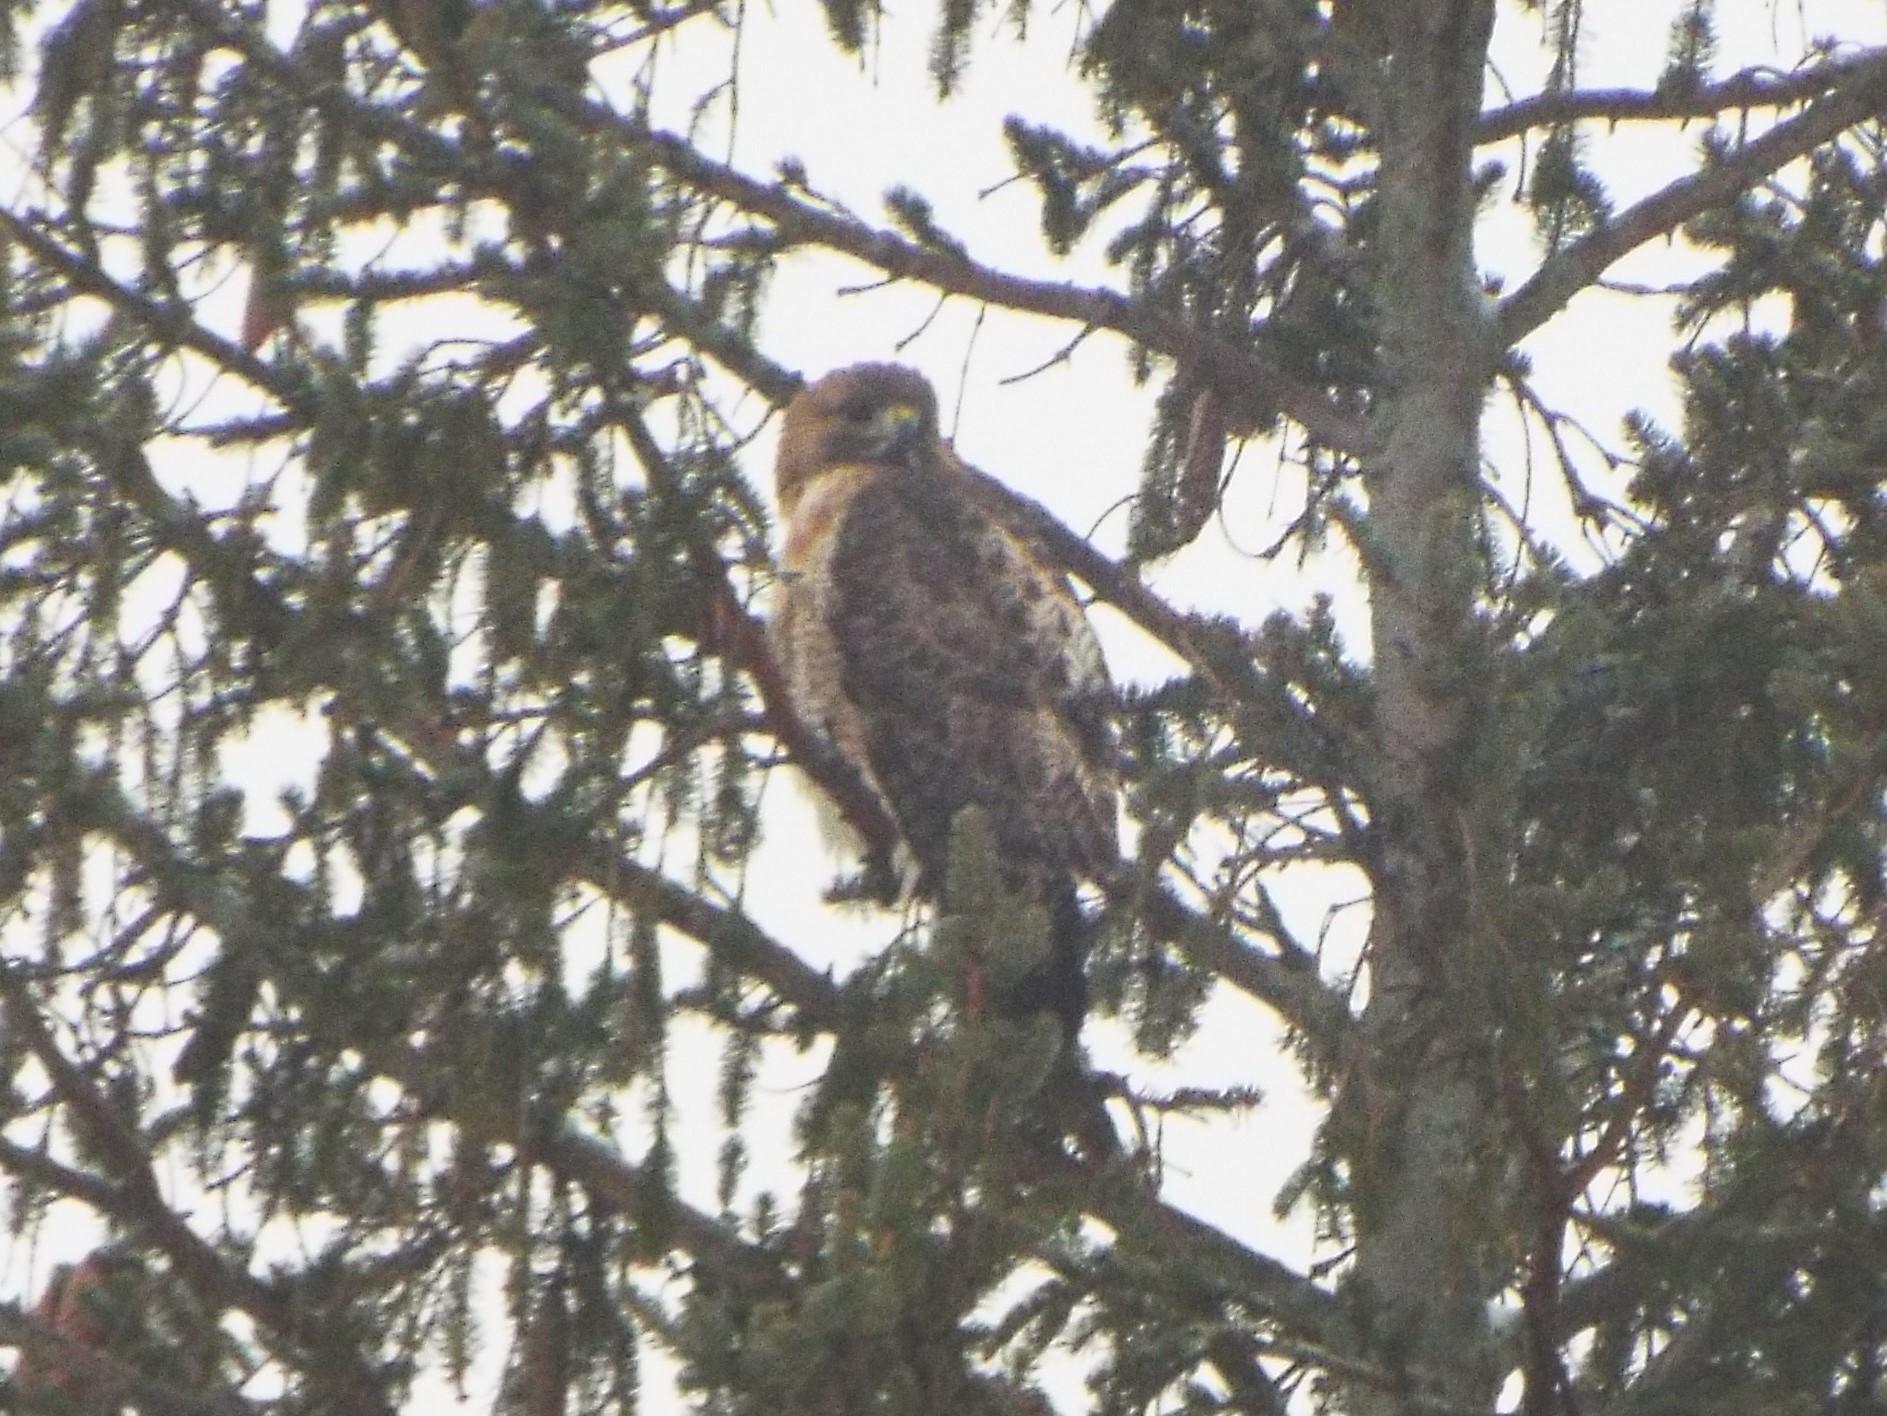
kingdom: Animalia
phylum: Chordata
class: Aves
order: Accipitriformes
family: Accipitridae
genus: Buteo
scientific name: Buteo jamaicensis
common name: Red-tailed hawk
